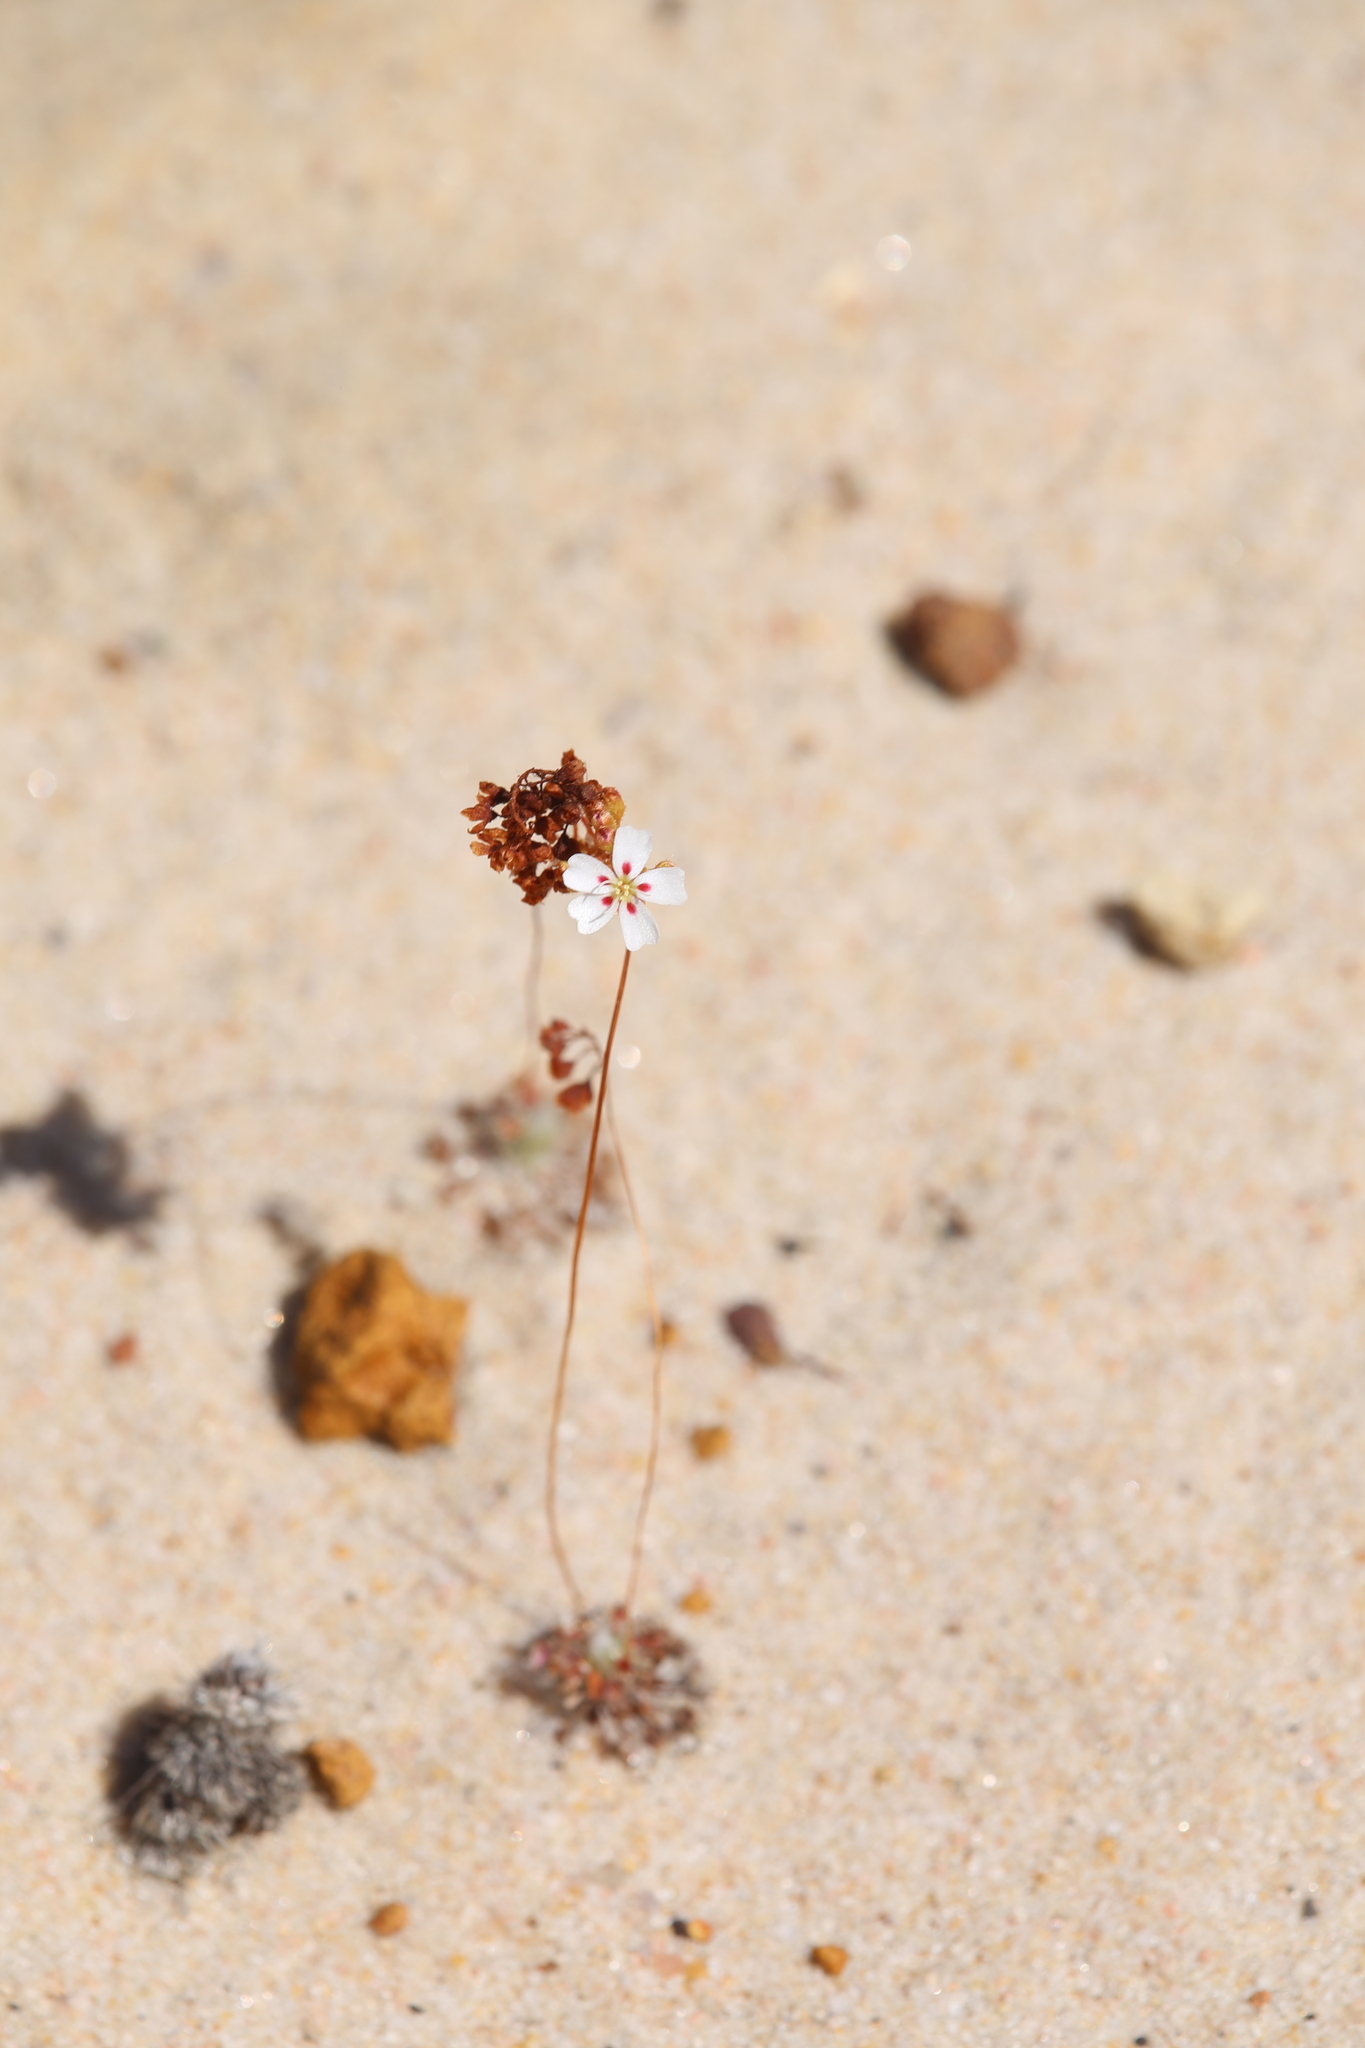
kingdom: Plantae
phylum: Tracheophyta
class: Magnoliopsida
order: Caryophyllales
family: Droseraceae
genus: Drosera
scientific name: Drosera eneabba
